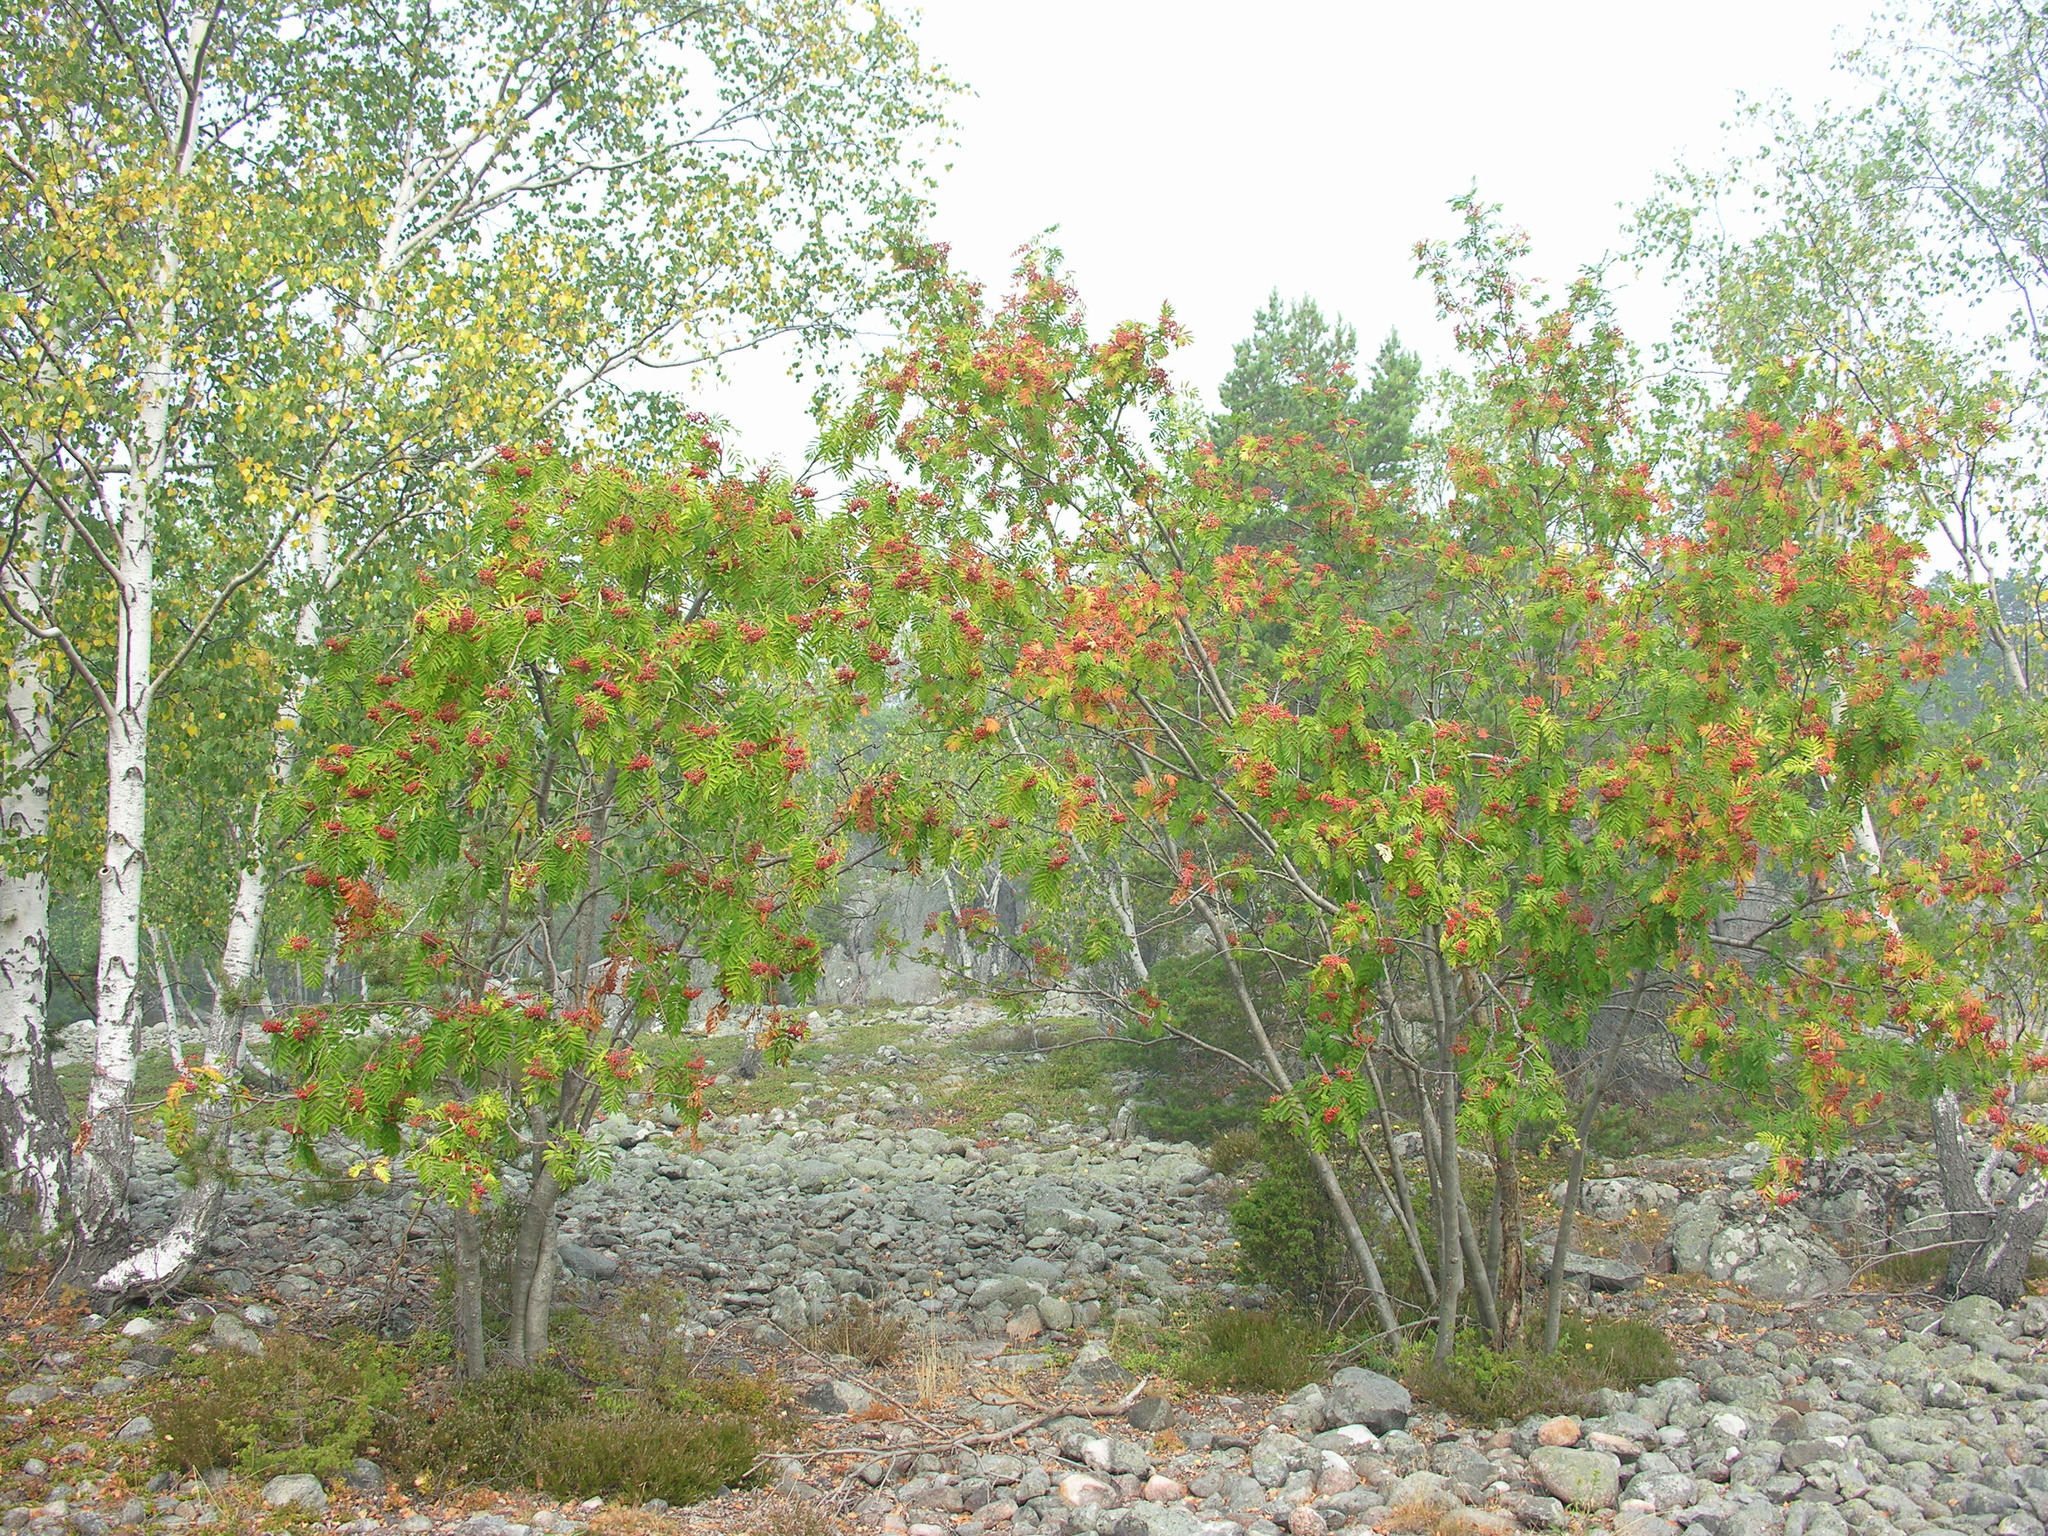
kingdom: Plantae
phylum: Tracheophyta
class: Magnoliopsida
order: Rosales
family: Rosaceae
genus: Sorbus
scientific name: Sorbus aucuparia
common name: Rowan
